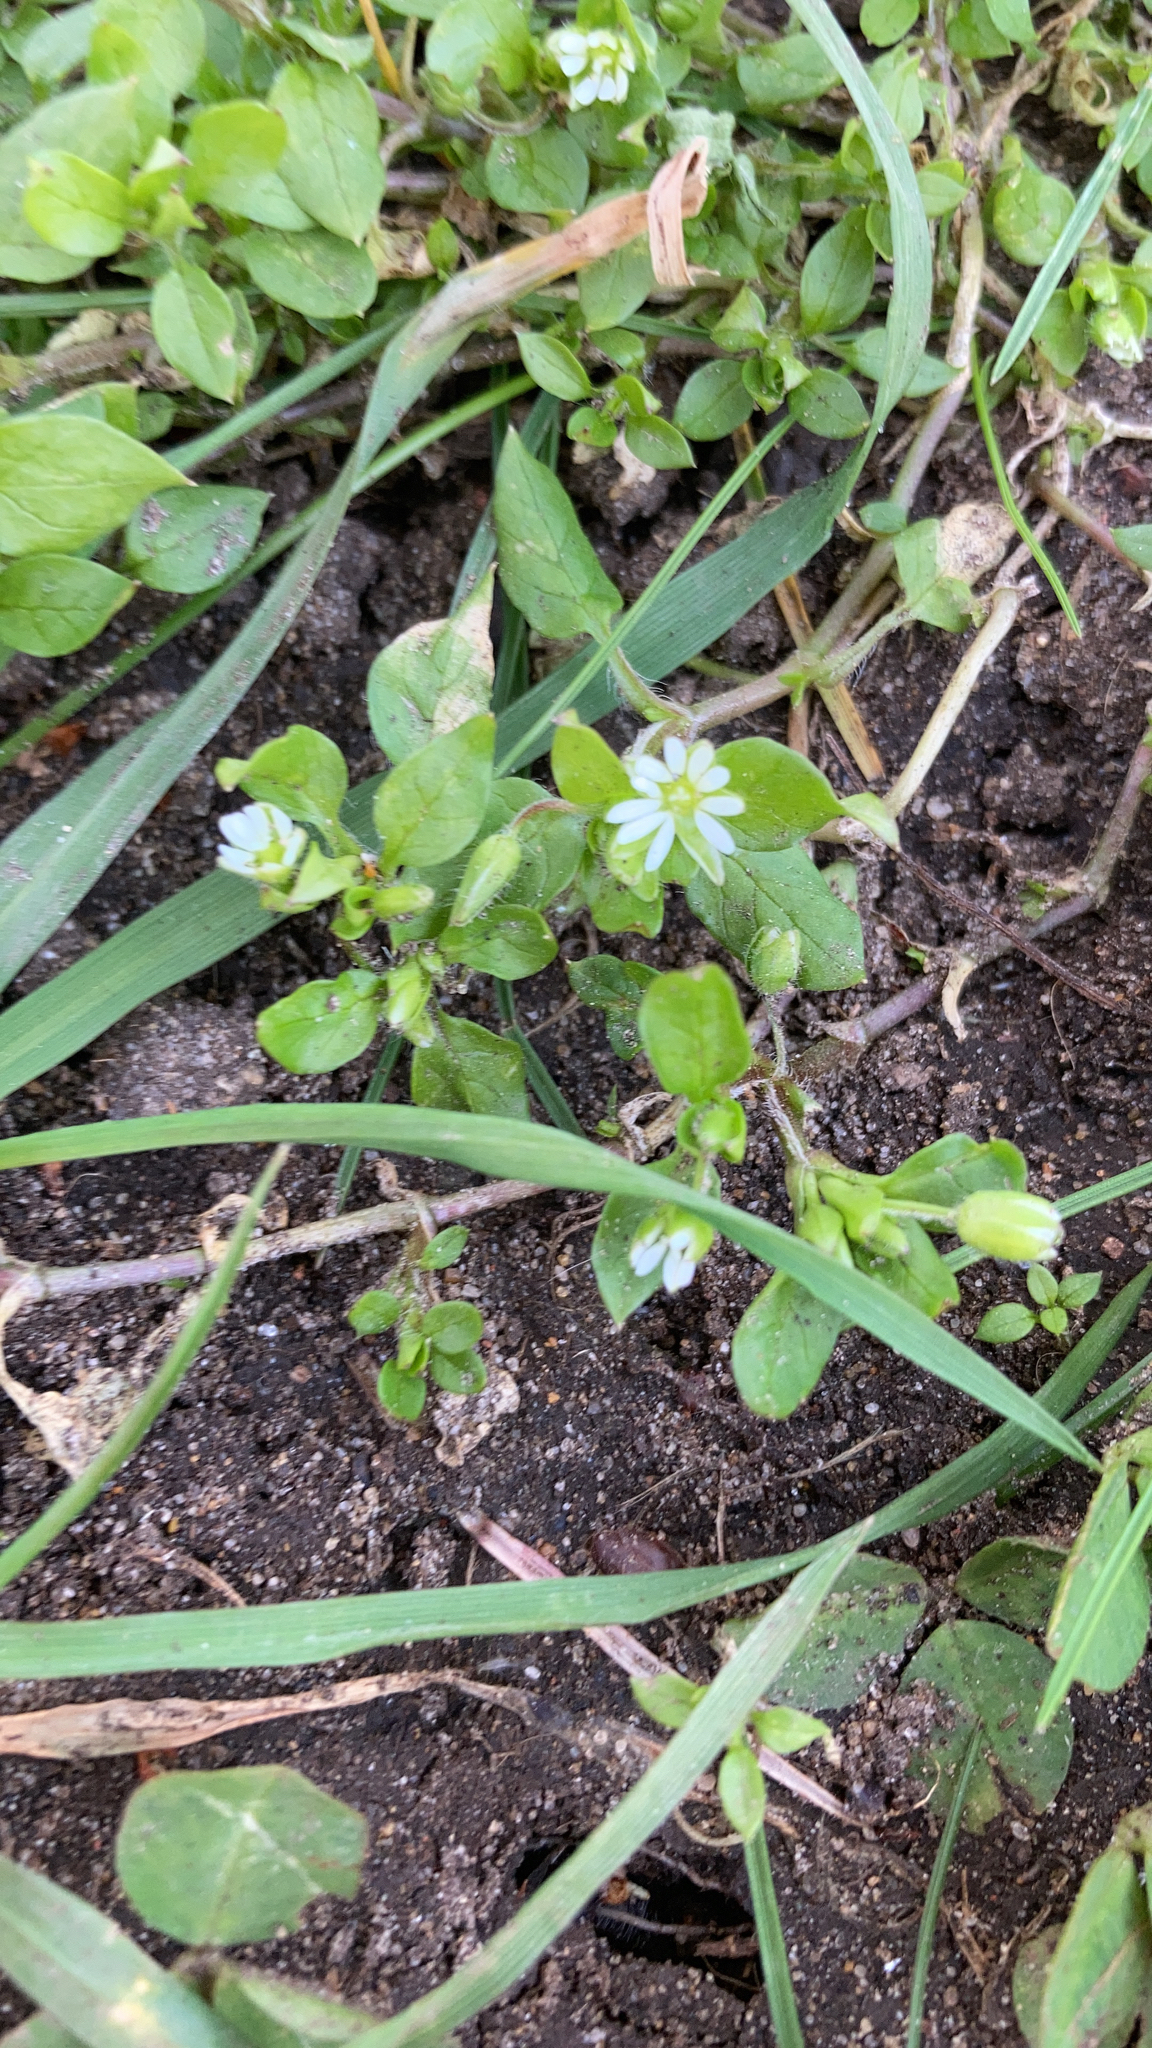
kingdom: Plantae
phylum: Tracheophyta
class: Magnoliopsida
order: Caryophyllales
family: Caryophyllaceae
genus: Stellaria
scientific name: Stellaria media
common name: Common chickweed
